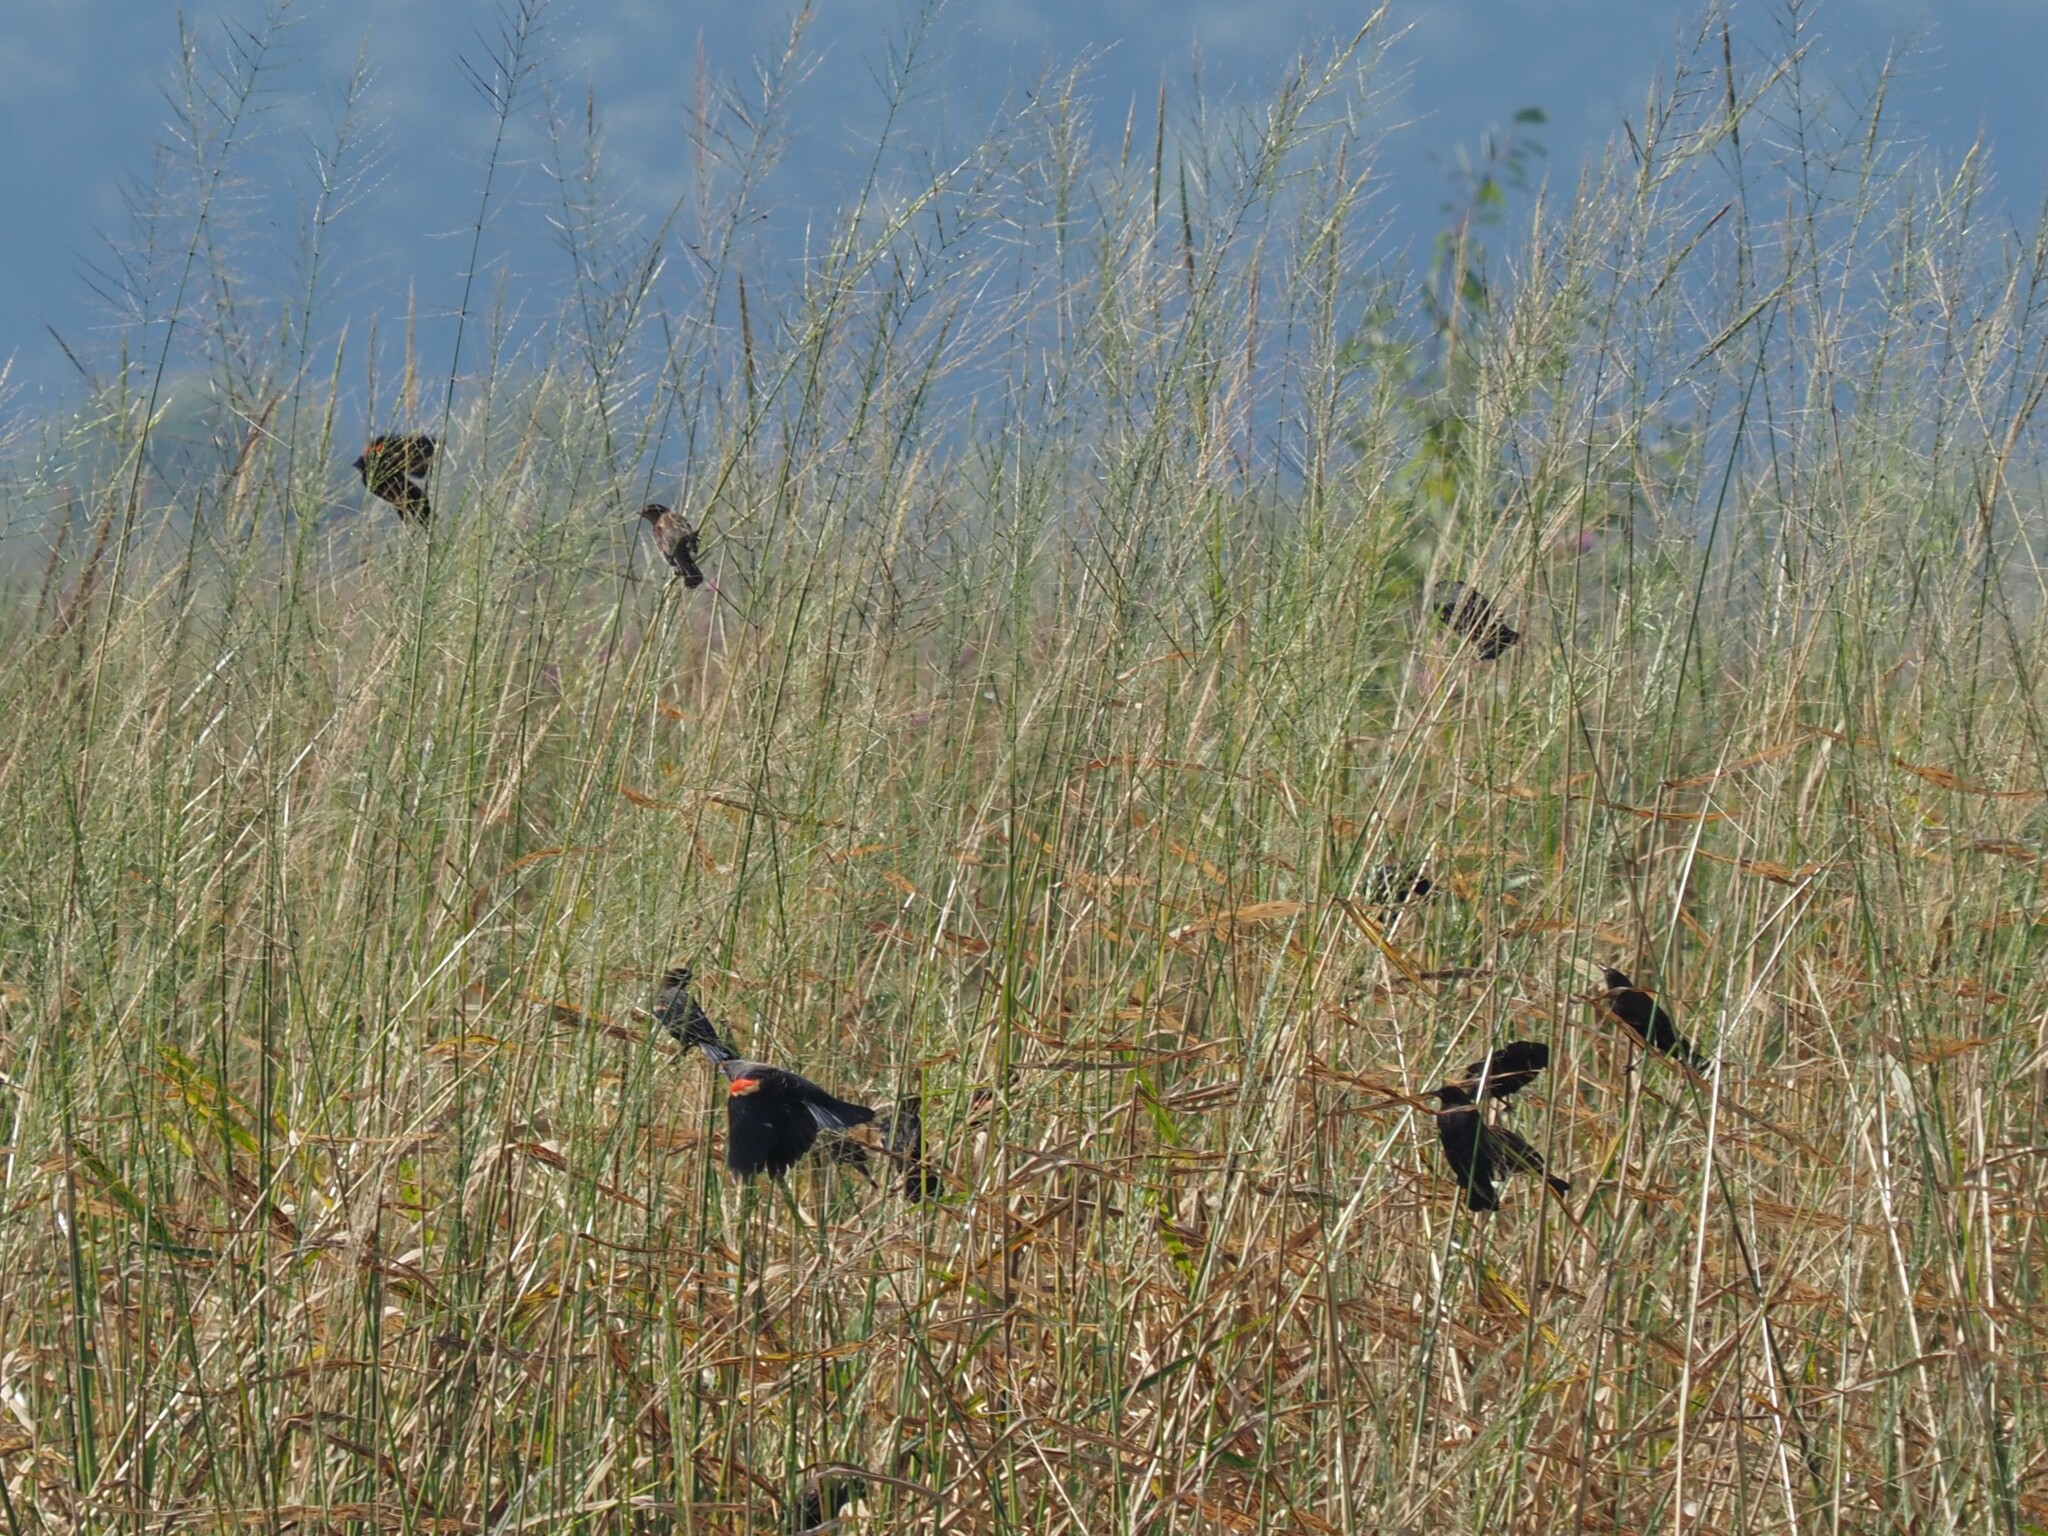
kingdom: Animalia
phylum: Chordata
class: Aves
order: Passeriformes
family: Icteridae
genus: Agelaius
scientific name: Agelaius phoeniceus
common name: Red-winged blackbird
